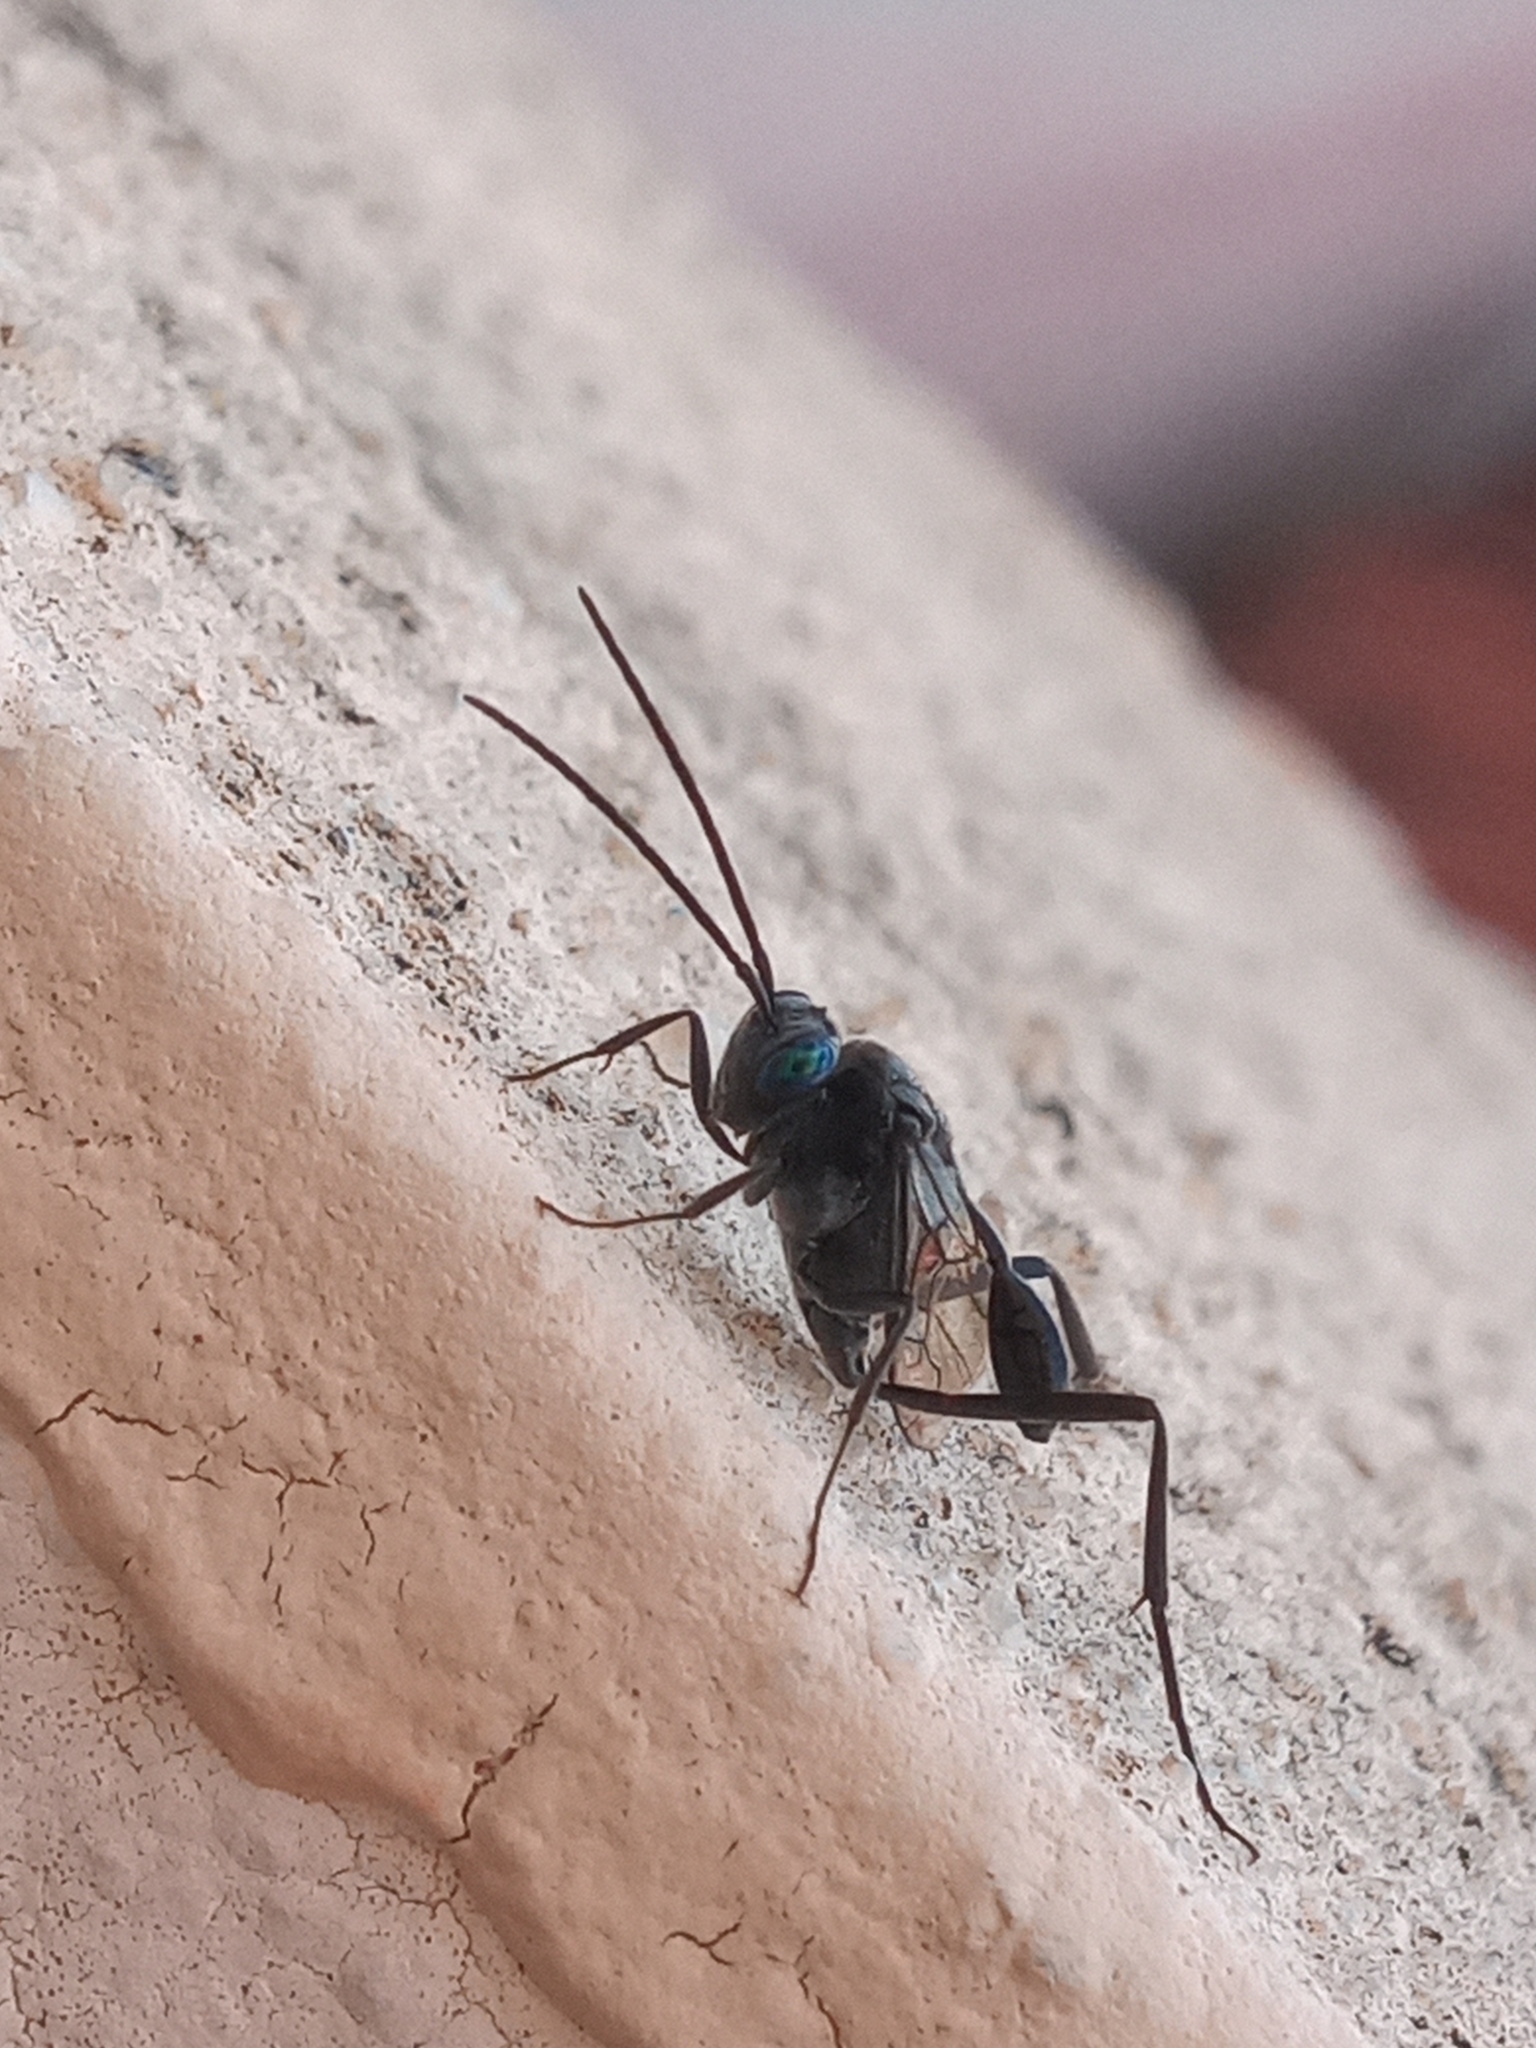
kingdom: Animalia
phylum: Arthropoda
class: Insecta
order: Hymenoptera
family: Evaniidae
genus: Evania
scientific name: Evania appendigaster
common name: Ensign wasp
